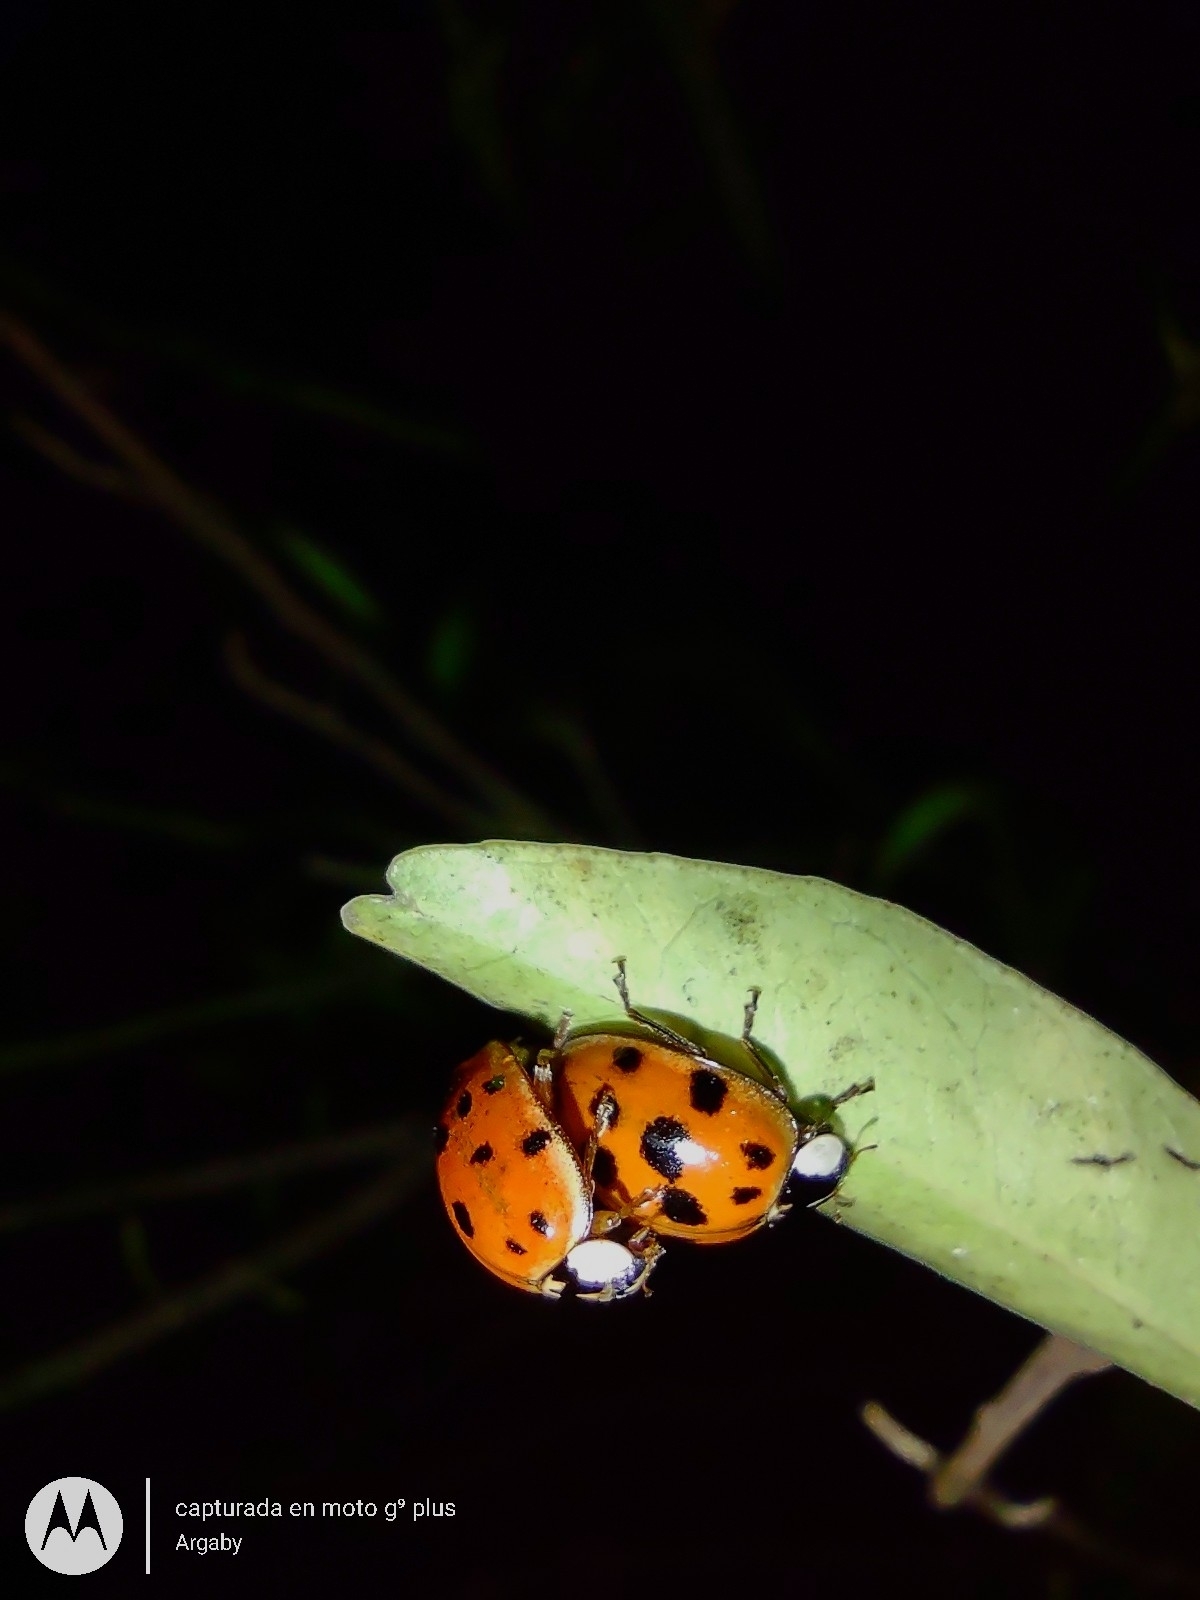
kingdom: Animalia
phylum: Arthropoda
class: Insecta
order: Coleoptera
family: Coccinellidae
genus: Harmonia
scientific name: Harmonia axyridis
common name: Harlequin ladybird
